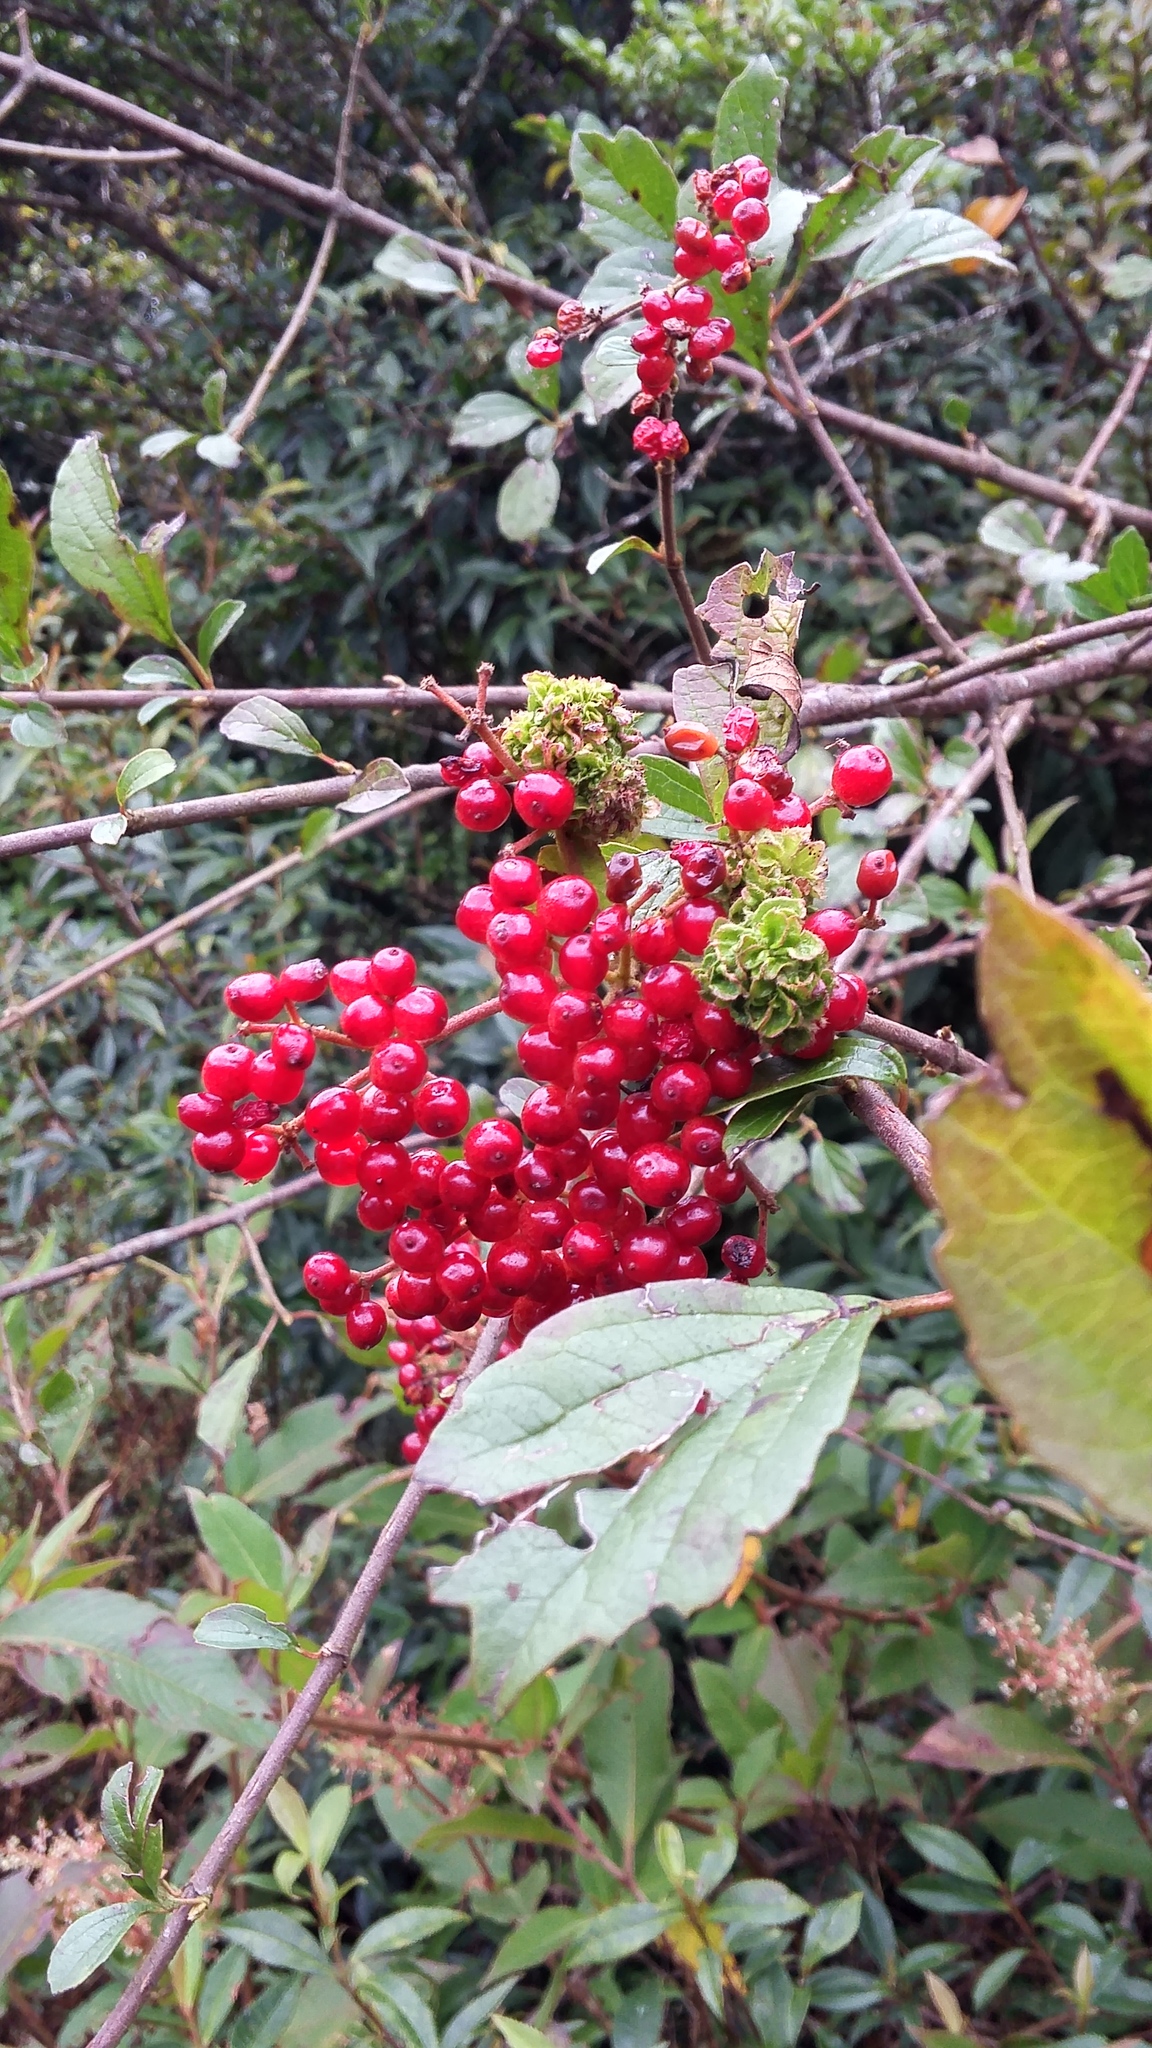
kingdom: Plantae
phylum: Tracheophyta
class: Magnoliopsida
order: Dipsacales
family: Viburnaceae
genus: Viburnum
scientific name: Viburnum foetidum
